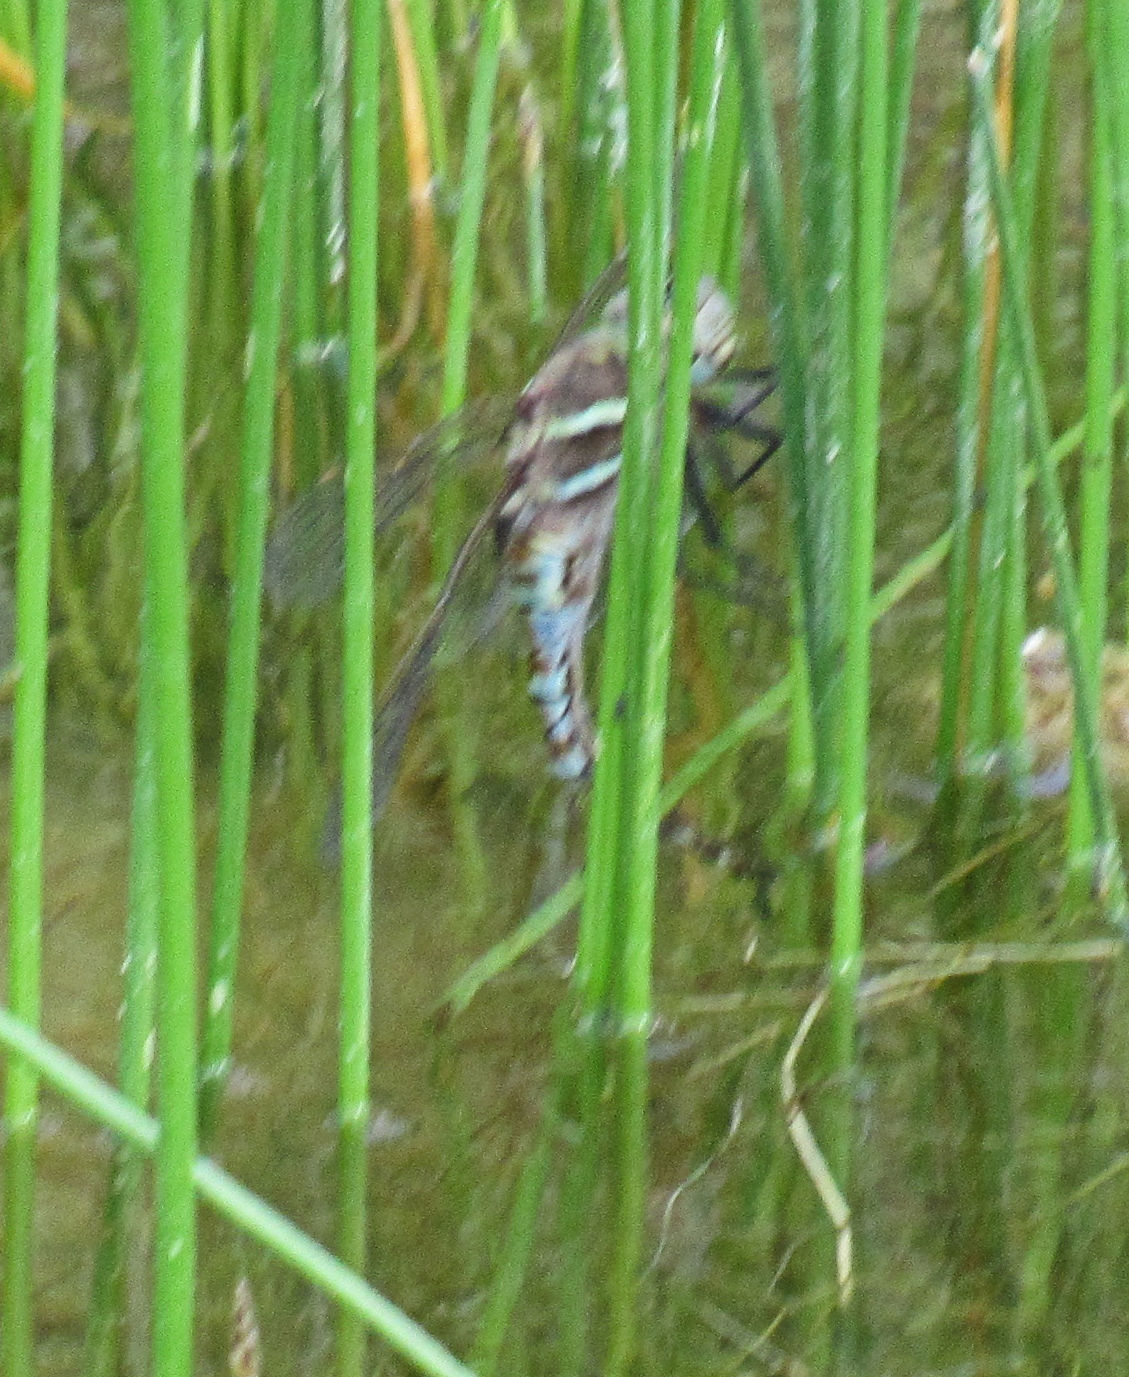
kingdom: Animalia
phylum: Arthropoda
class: Insecta
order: Odonata
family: Aeshnidae
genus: Rhionaeschna
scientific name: Rhionaeschna multicolor
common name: Blue-eyed darner
